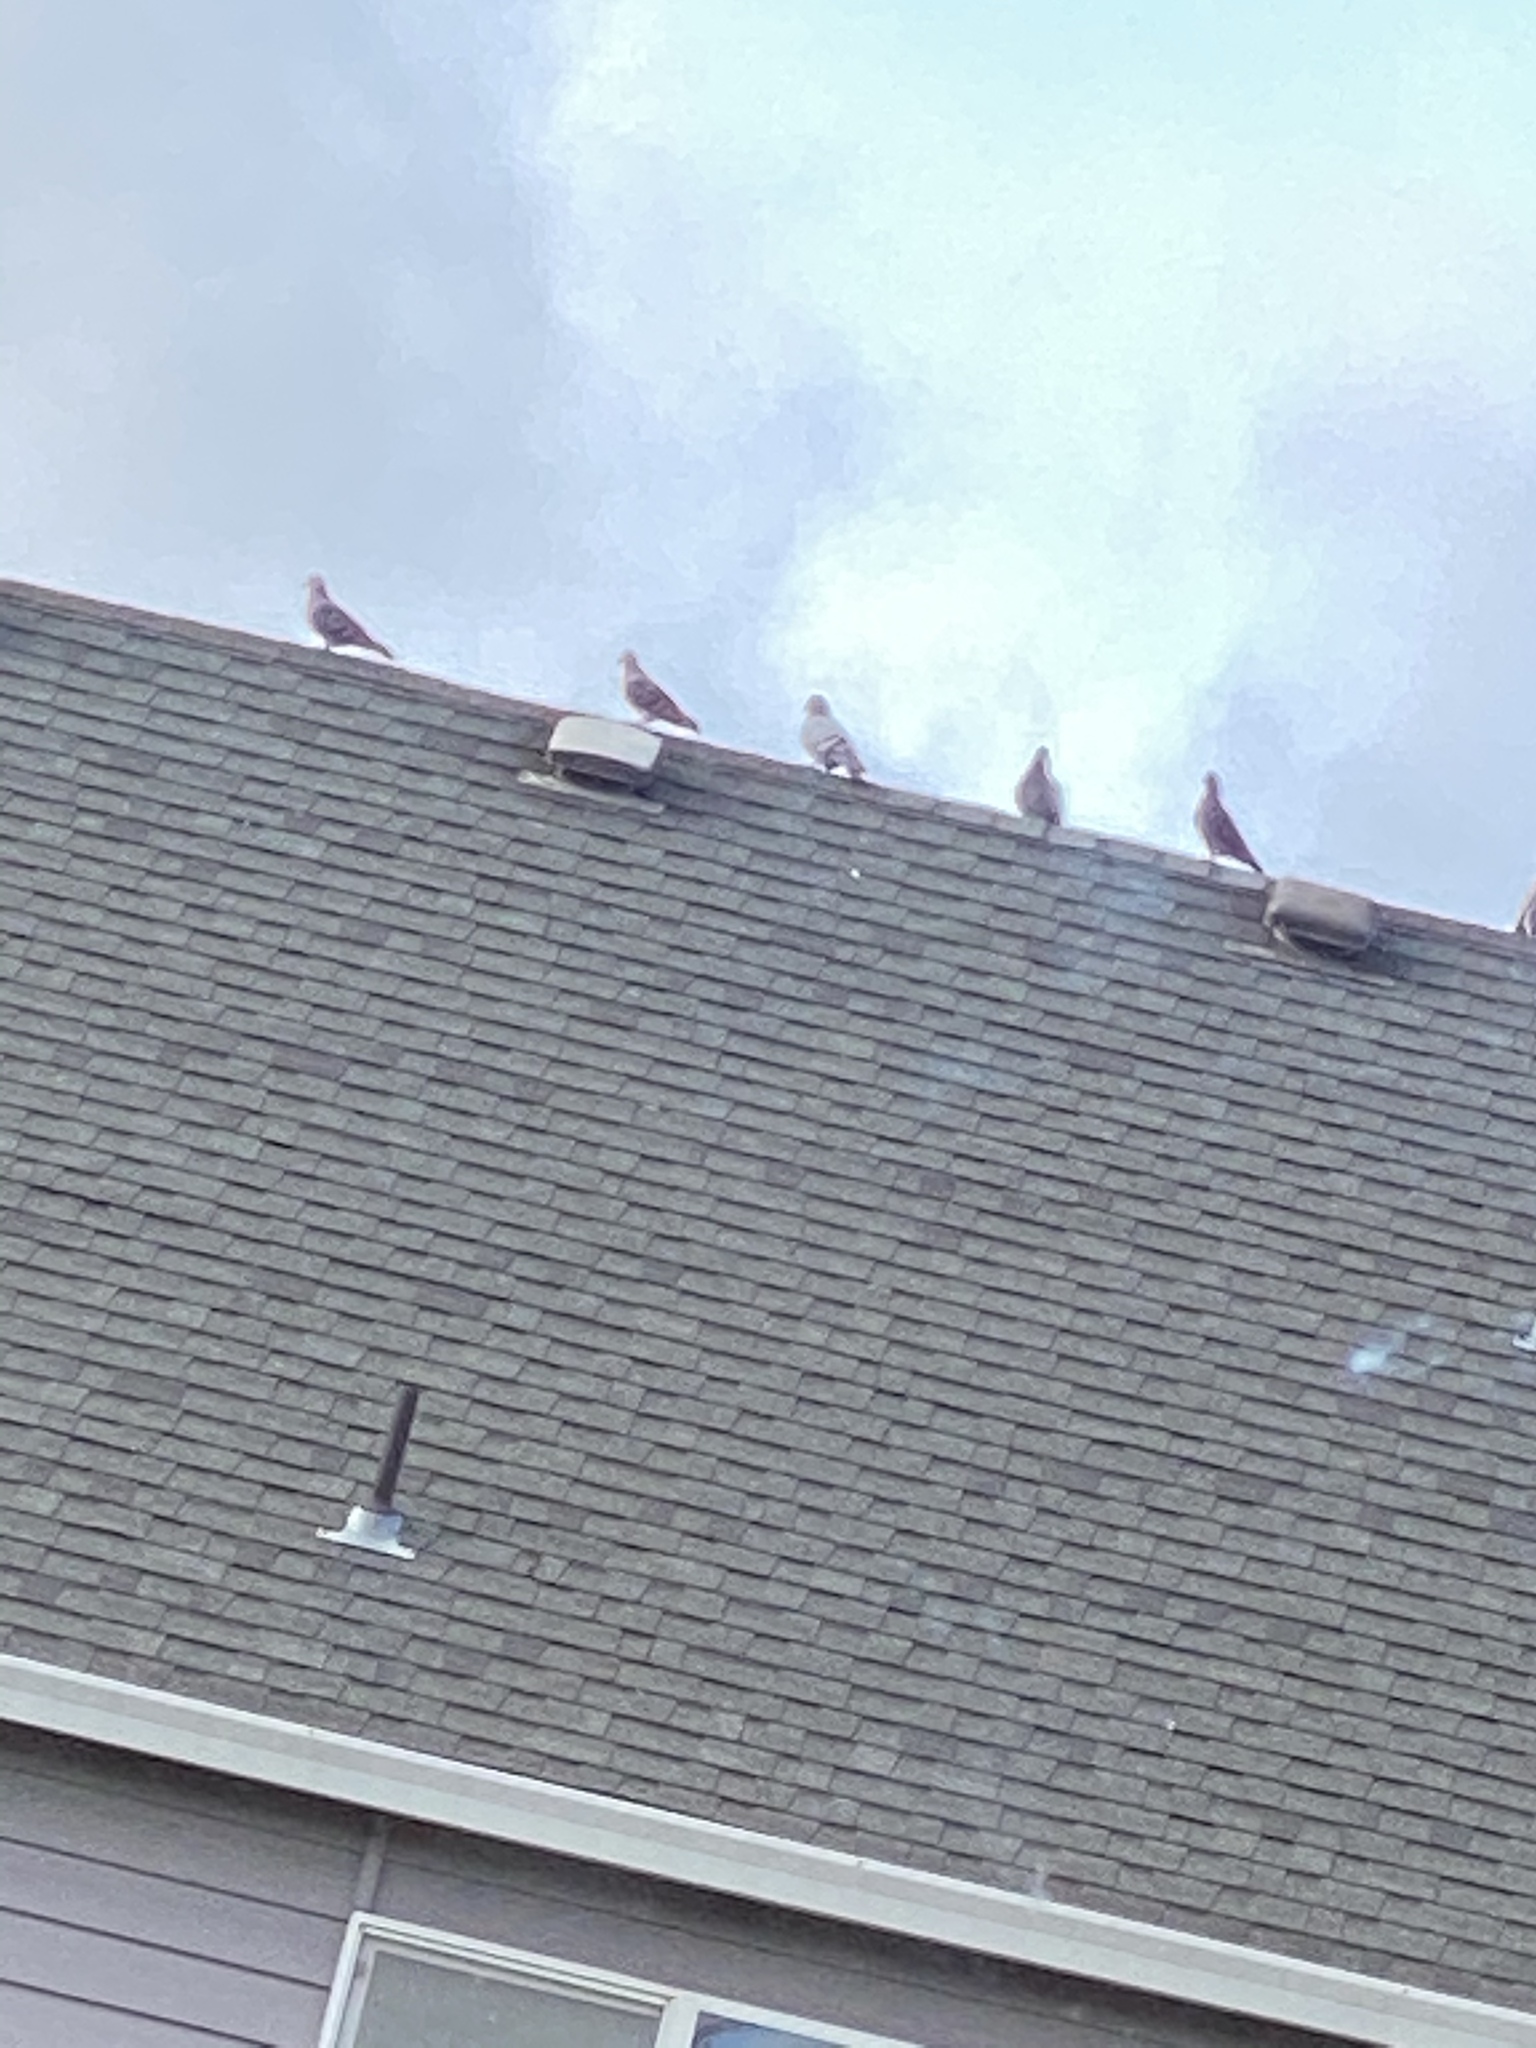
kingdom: Animalia
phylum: Chordata
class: Aves
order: Columbiformes
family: Columbidae
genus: Columba
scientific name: Columba livia
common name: Rock pigeon
